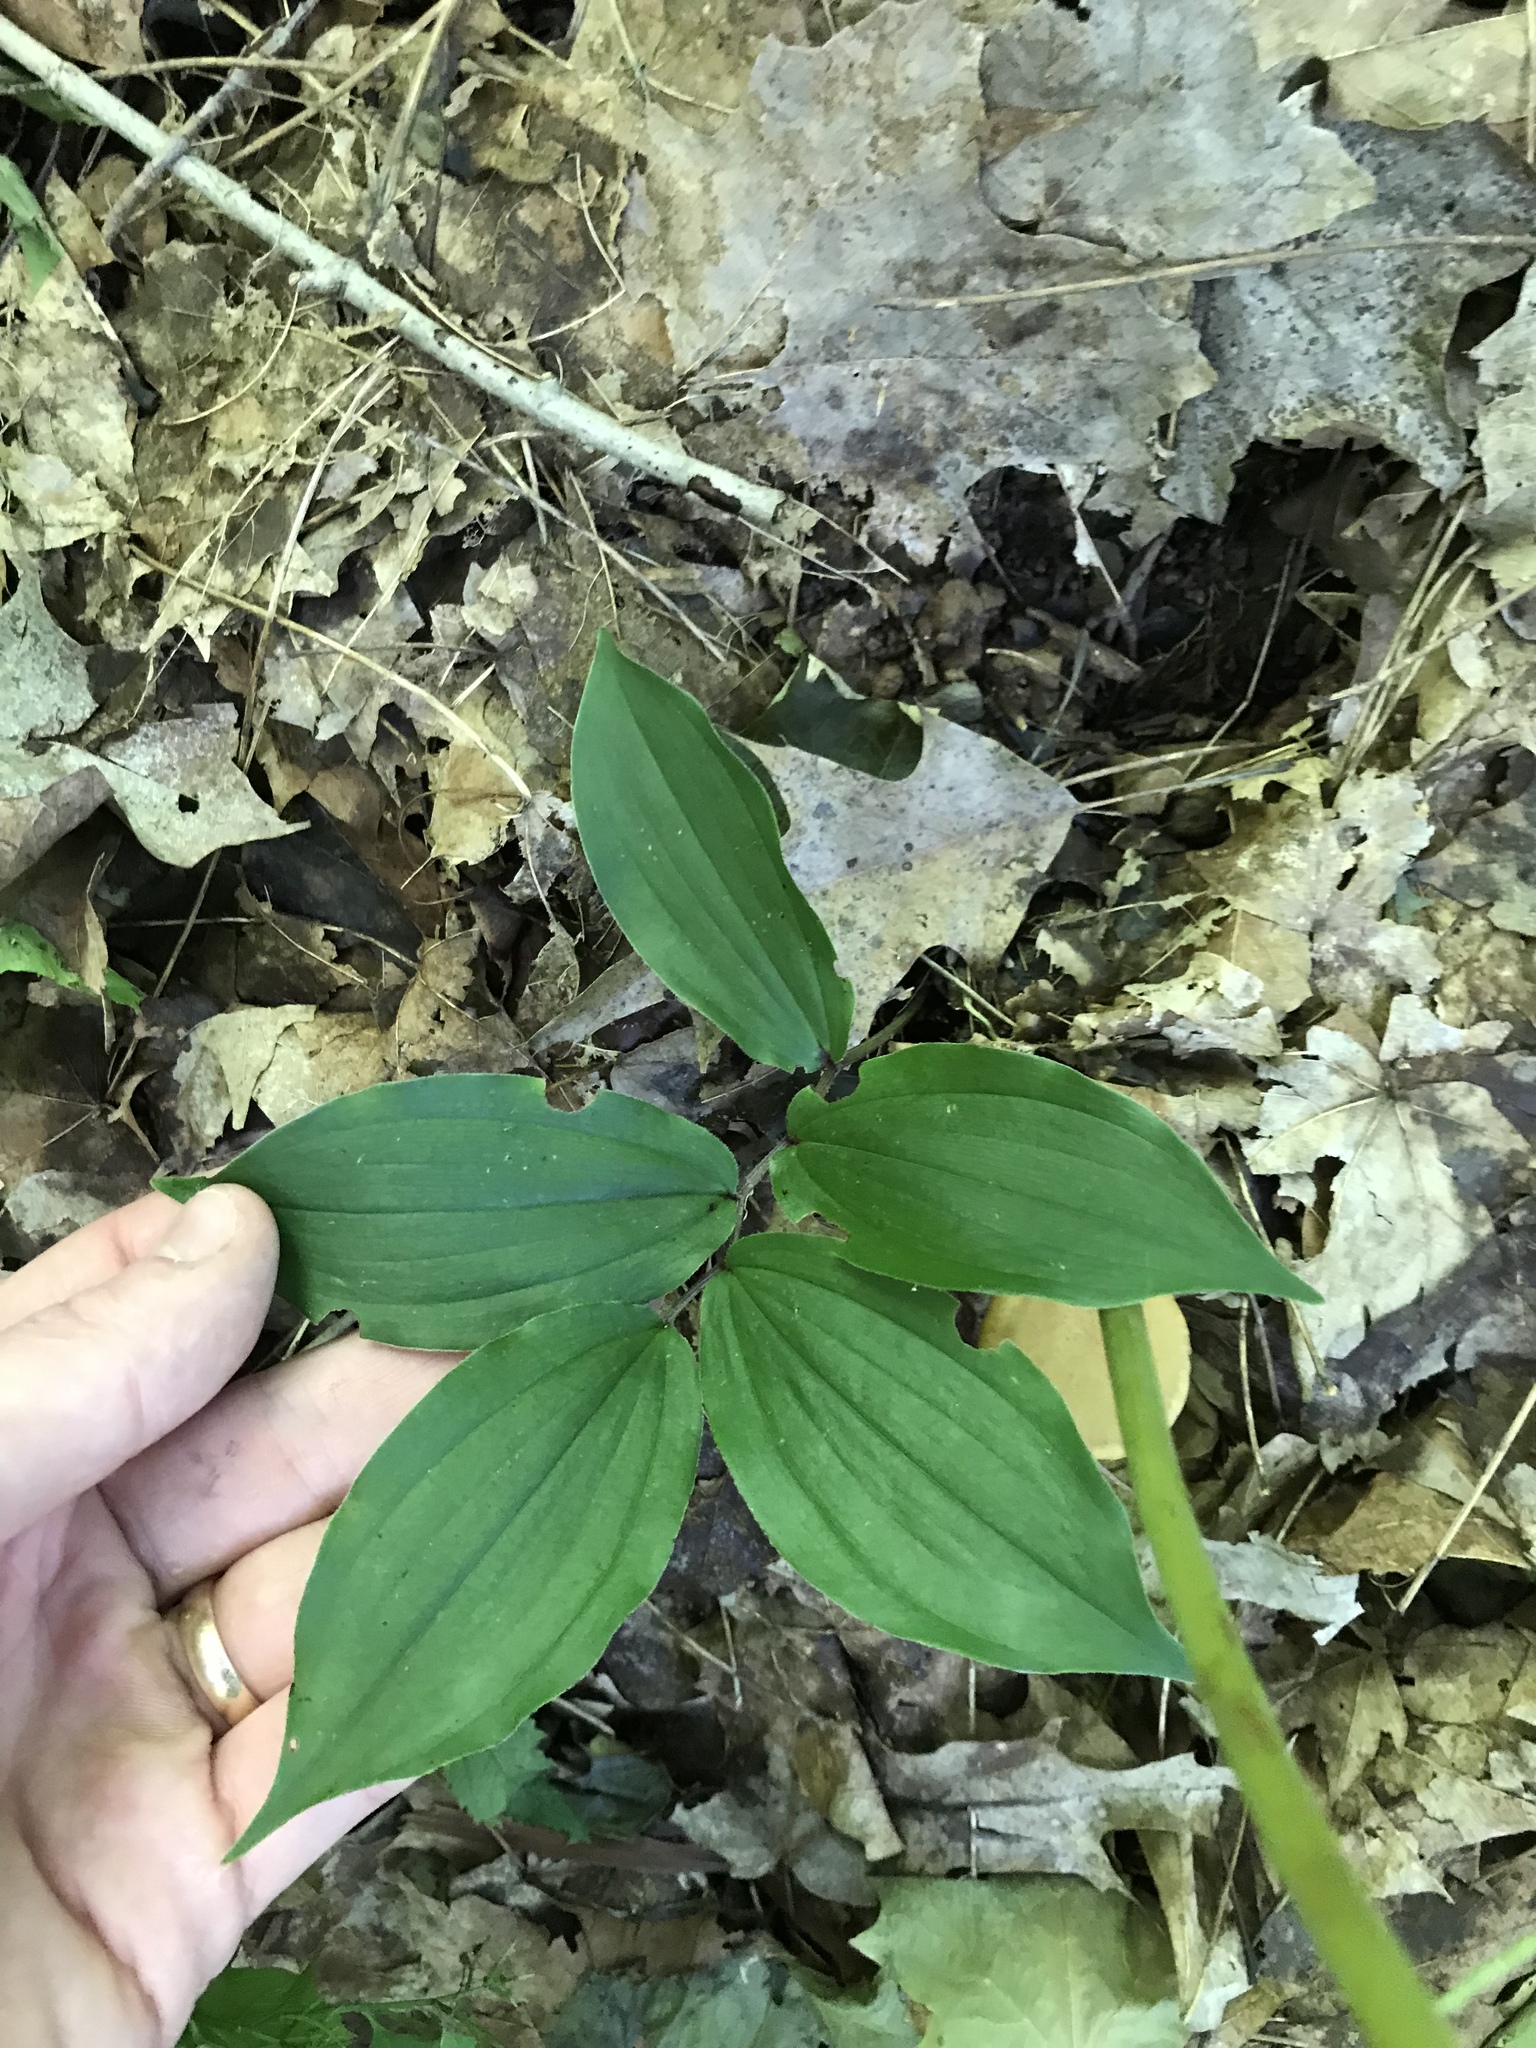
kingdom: Plantae
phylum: Tracheophyta
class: Liliopsida
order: Asparagales
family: Asparagaceae
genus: Maianthemum
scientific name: Maianthemum racemosum
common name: False spikenard
